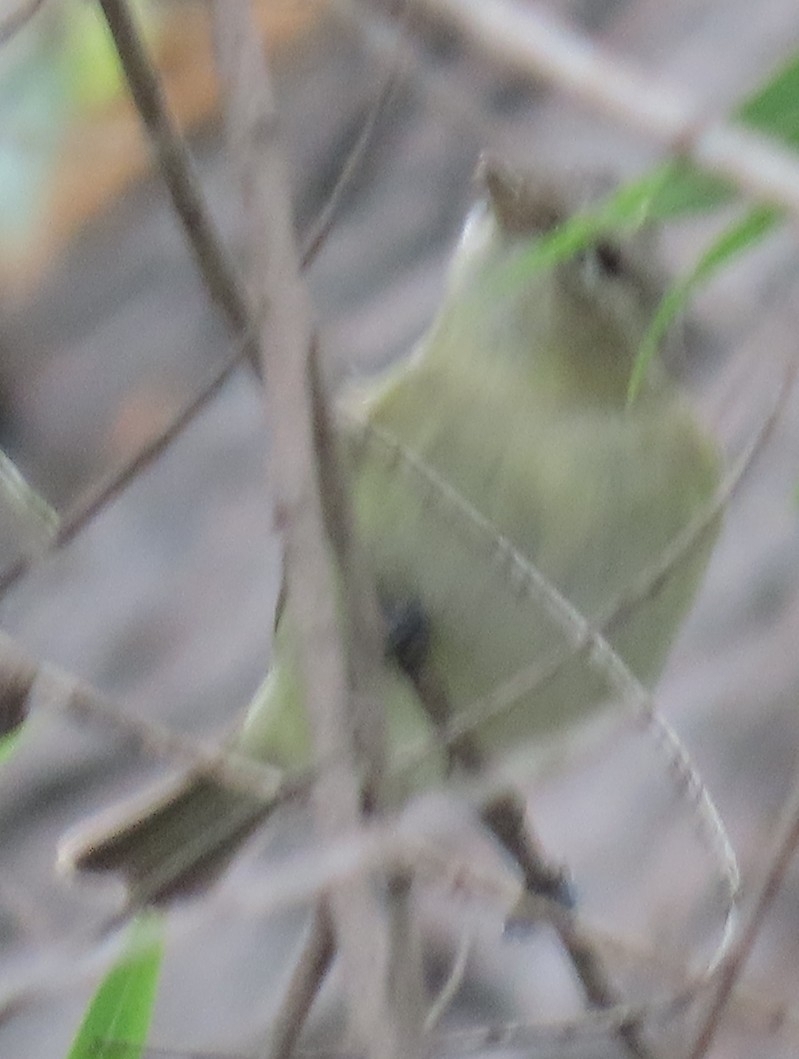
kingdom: Animalia
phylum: Chordata
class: Aves
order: Passeriformes
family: Vireonidae
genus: Vireo
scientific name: Vireo gilvus
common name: Warbling vireo
